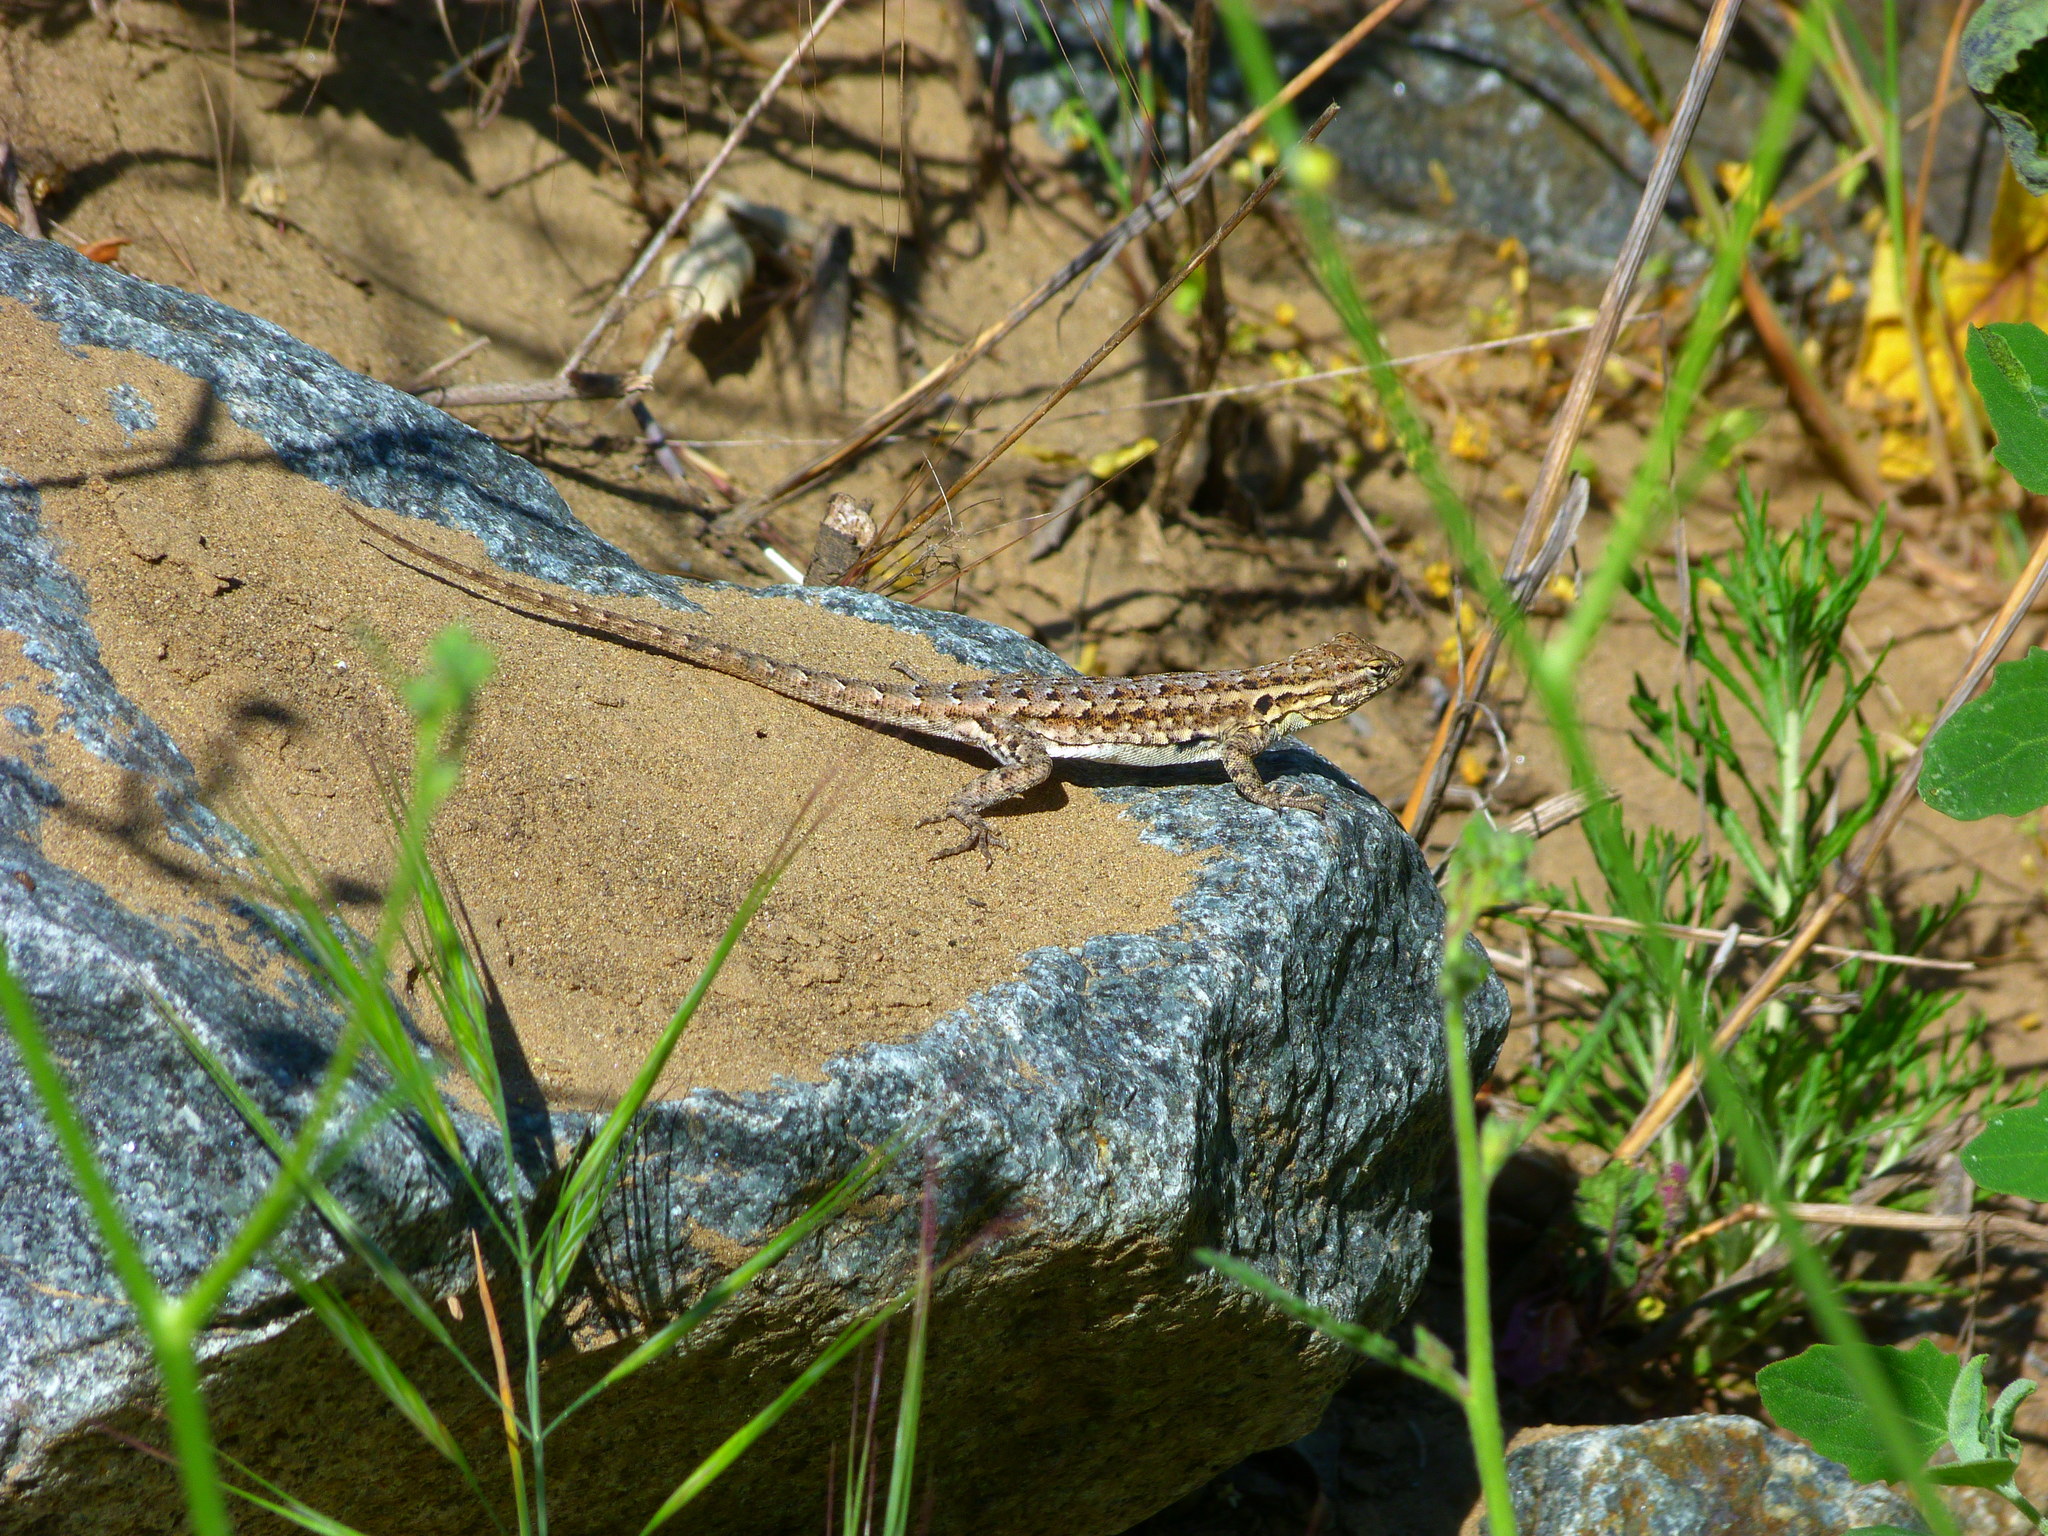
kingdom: Animalia
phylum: Chordata
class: Squamata
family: Phrynosomatidae
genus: Uta
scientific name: Uta stansburiana
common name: Side-blotched lizard
